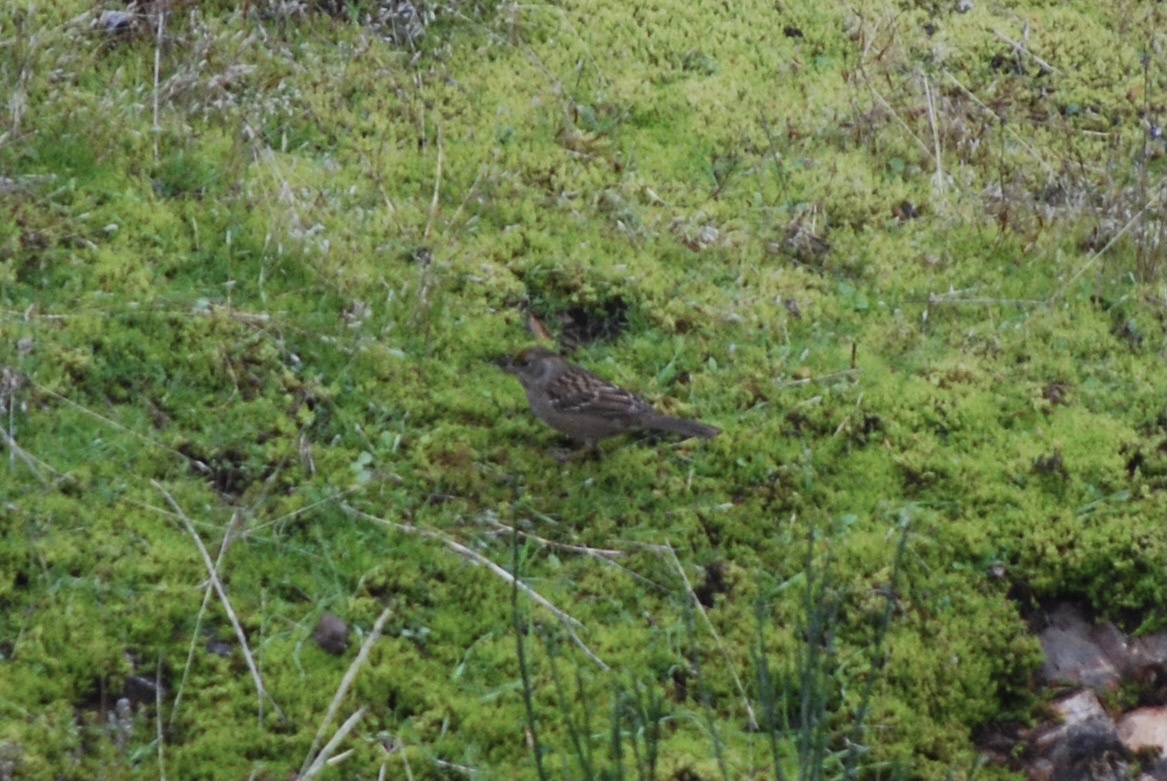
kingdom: Animalia
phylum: Chordata
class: Aves
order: Passeriformes
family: Passerellidae
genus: Zonotrichia
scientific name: Zonotrichia atricapilla
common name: Golden-crowned sparrow
